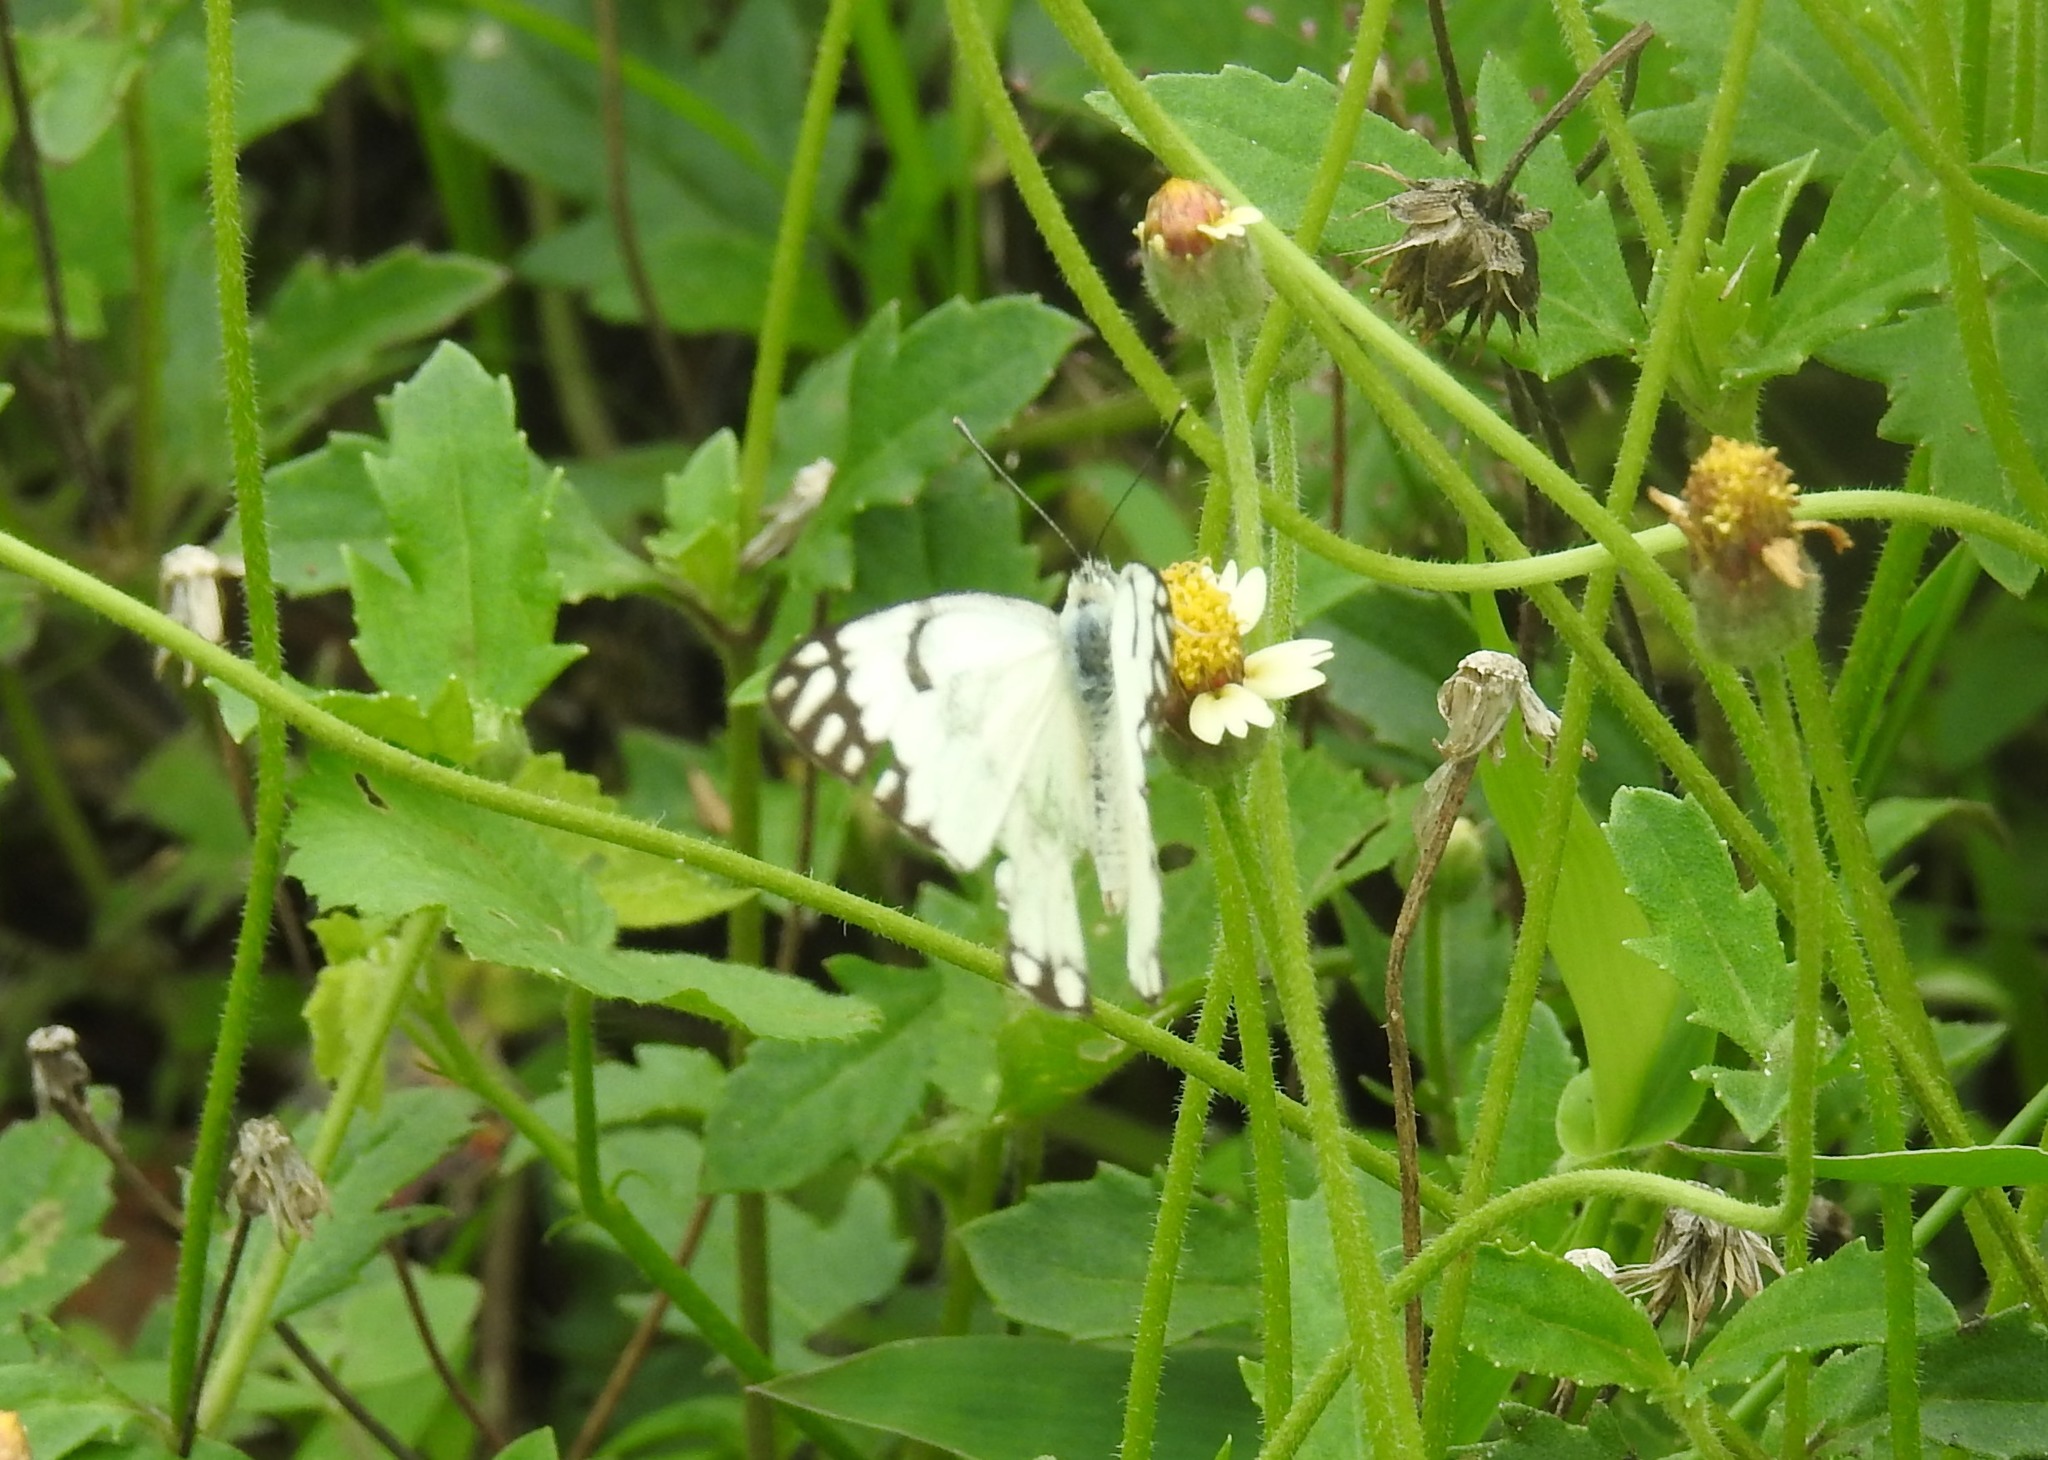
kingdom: Animalia
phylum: Arthropoda
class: Insecta
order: Lepidoptera
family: Pieridae
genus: Belenois
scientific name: Belenois aurota
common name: Brown-veined white
